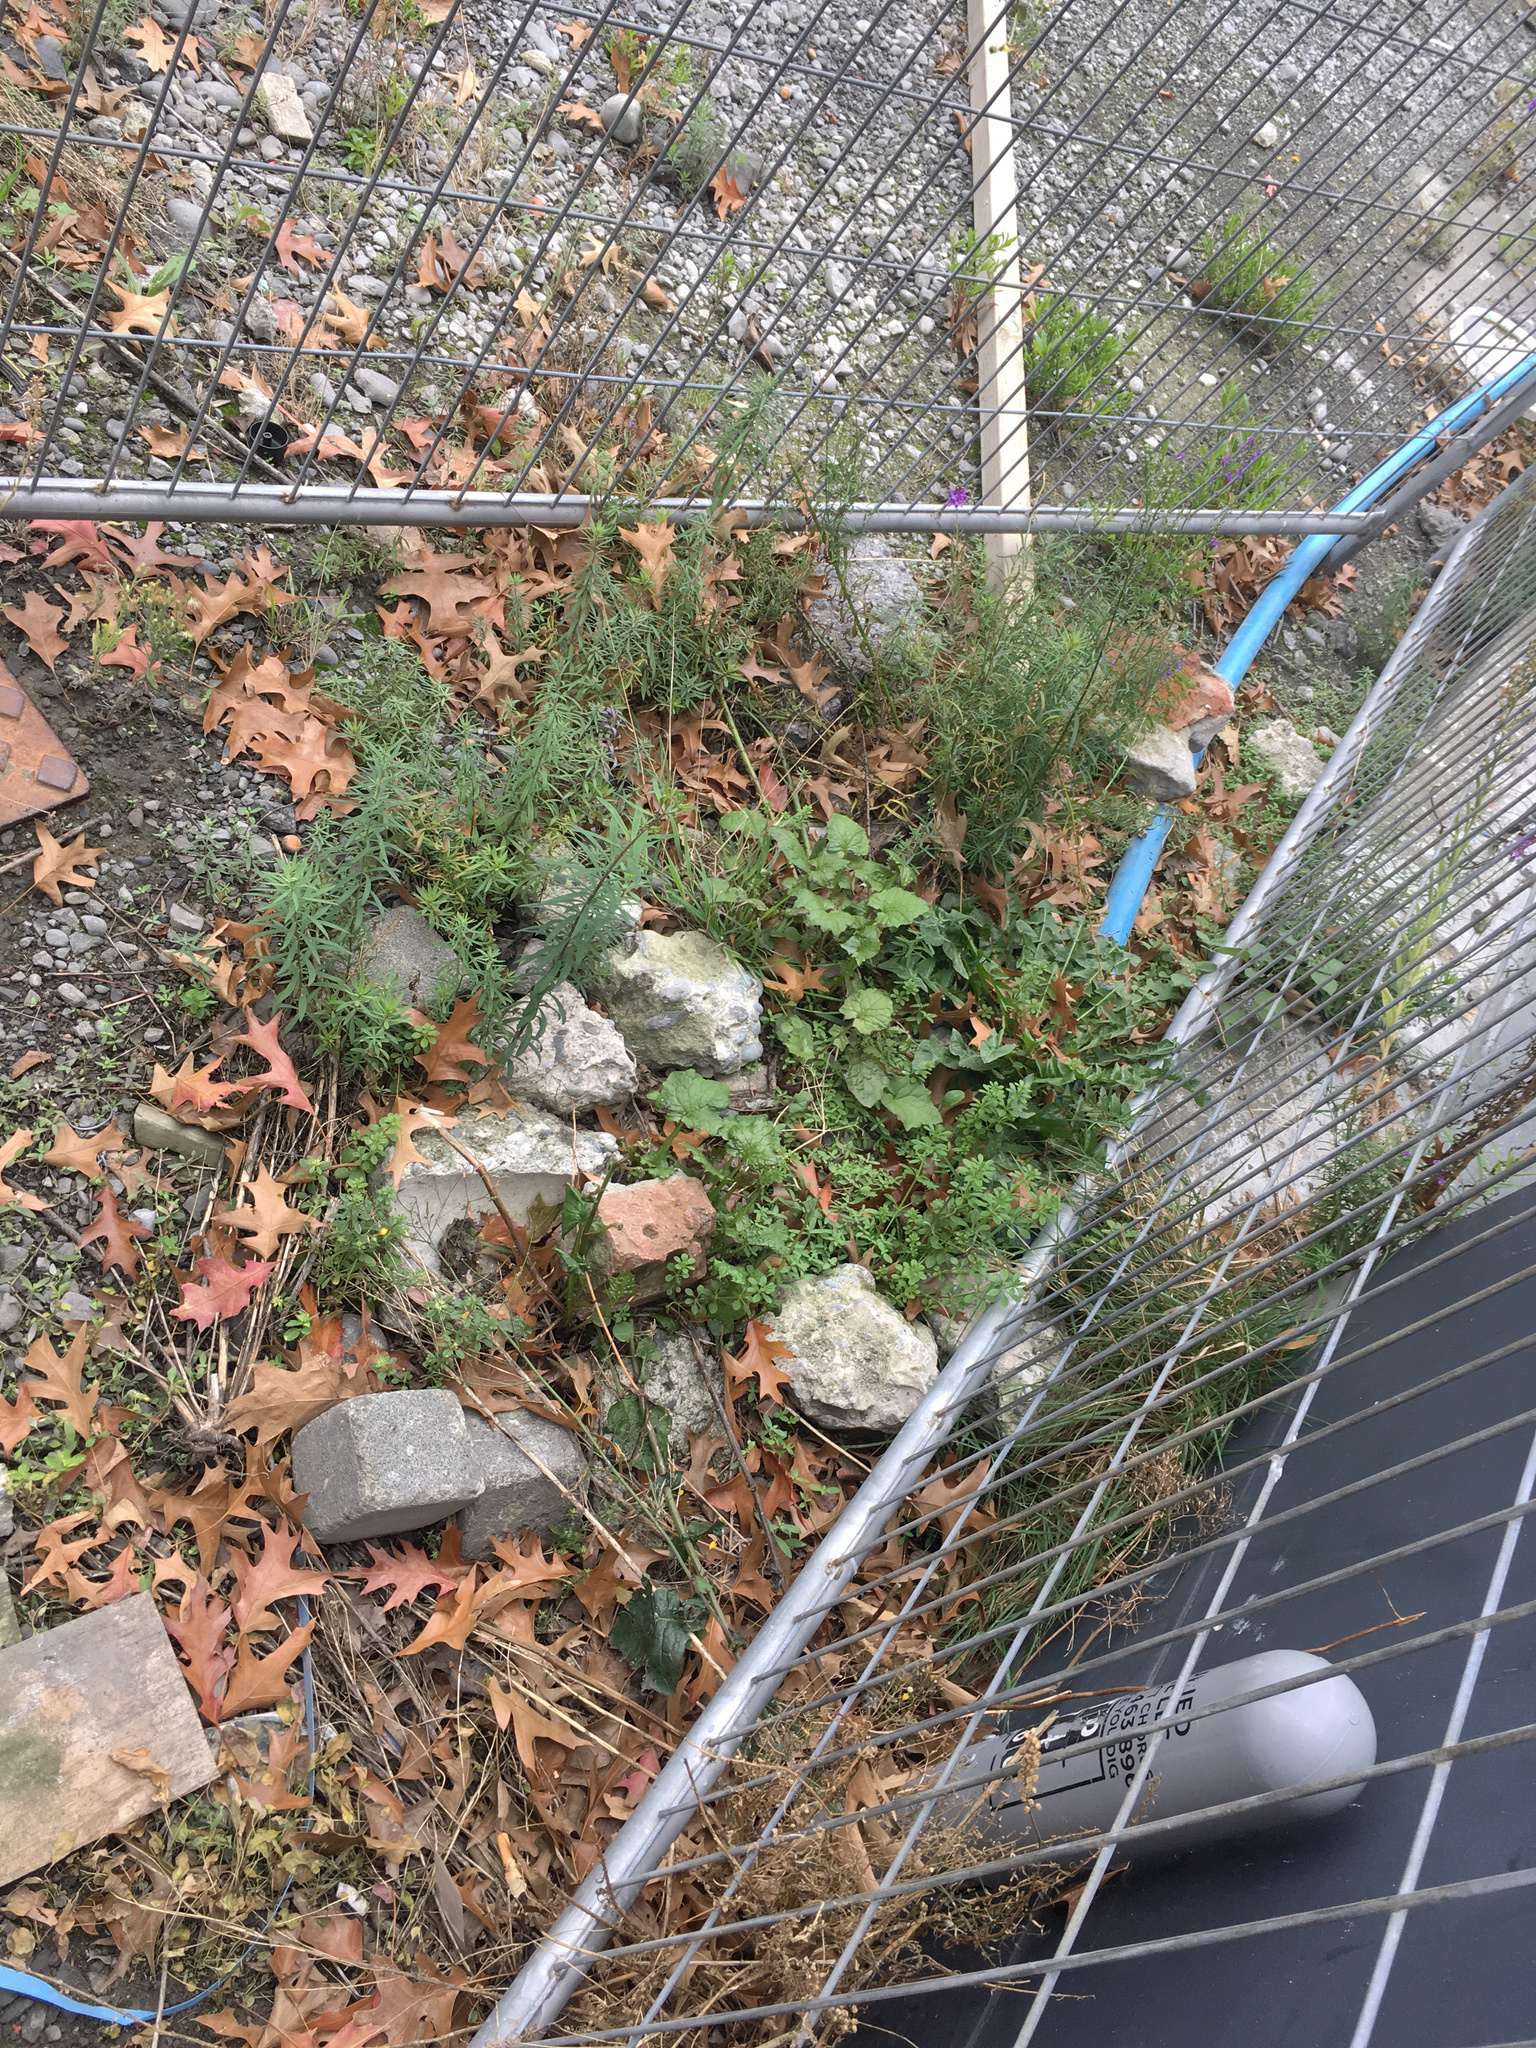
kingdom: Plantae
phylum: Tracheophyta
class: Magnoliopsida
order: Asterales
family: Asteraceae
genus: Mycelis
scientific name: Mycelis muralis
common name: Wall lettuce
